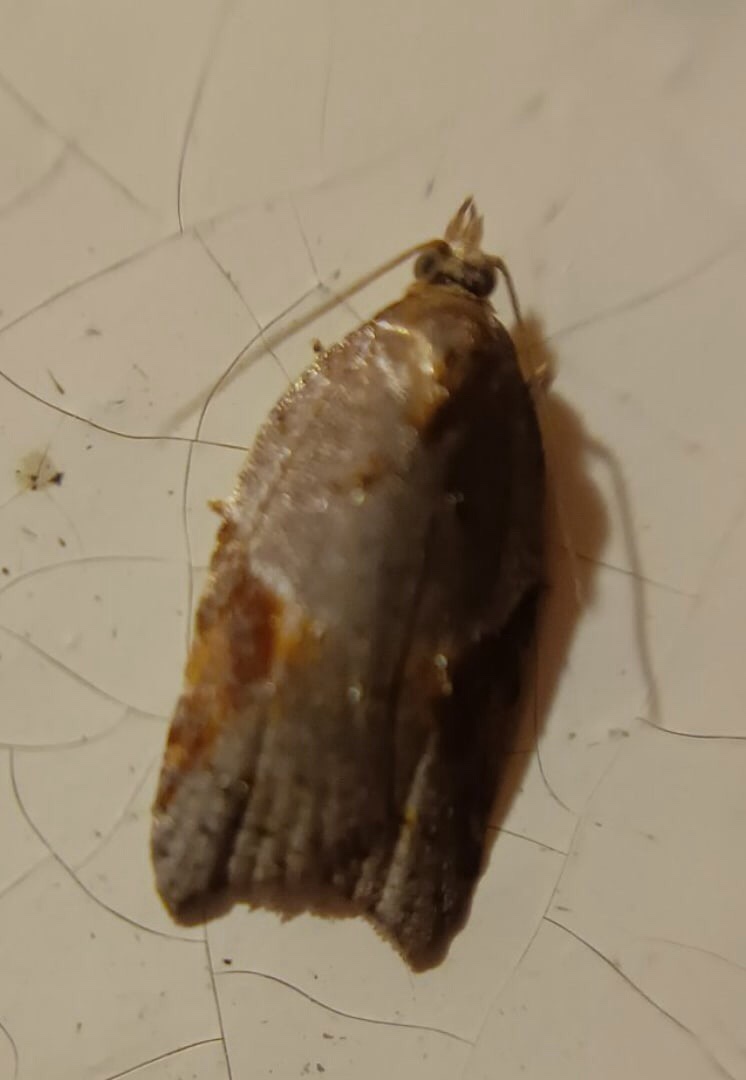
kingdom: Animalia
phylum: Arthropoda
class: Insecta
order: Lepidoptera
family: Tortricidae
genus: Acleris
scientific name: Acleris laterana
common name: Dark-triangle button
